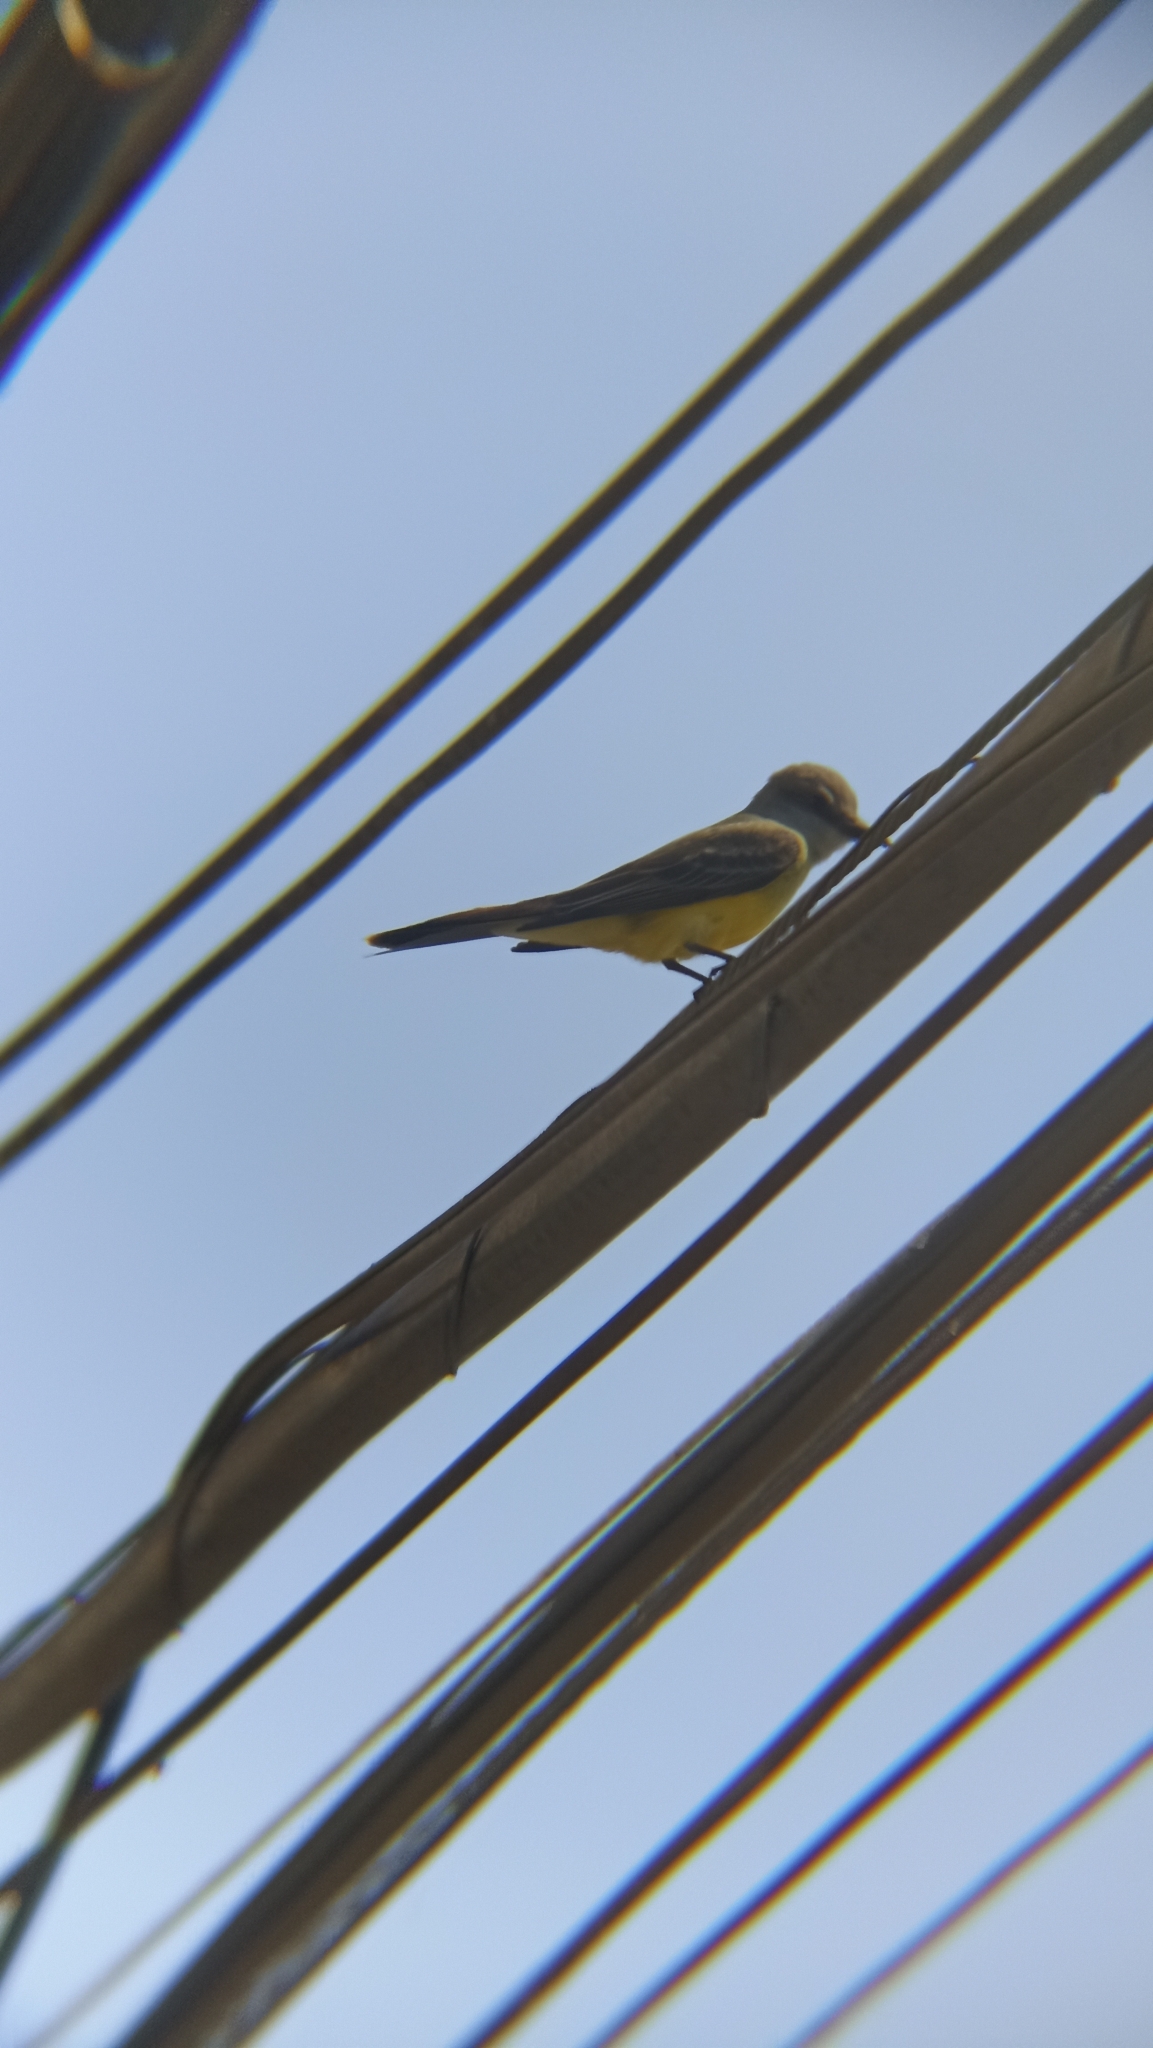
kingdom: Animalia
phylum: Chordata
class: Aves
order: Passeriformes
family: Tyrannidae
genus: Tyrannus
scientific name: Tyrannus melancholicus
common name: Tropical kingbird
